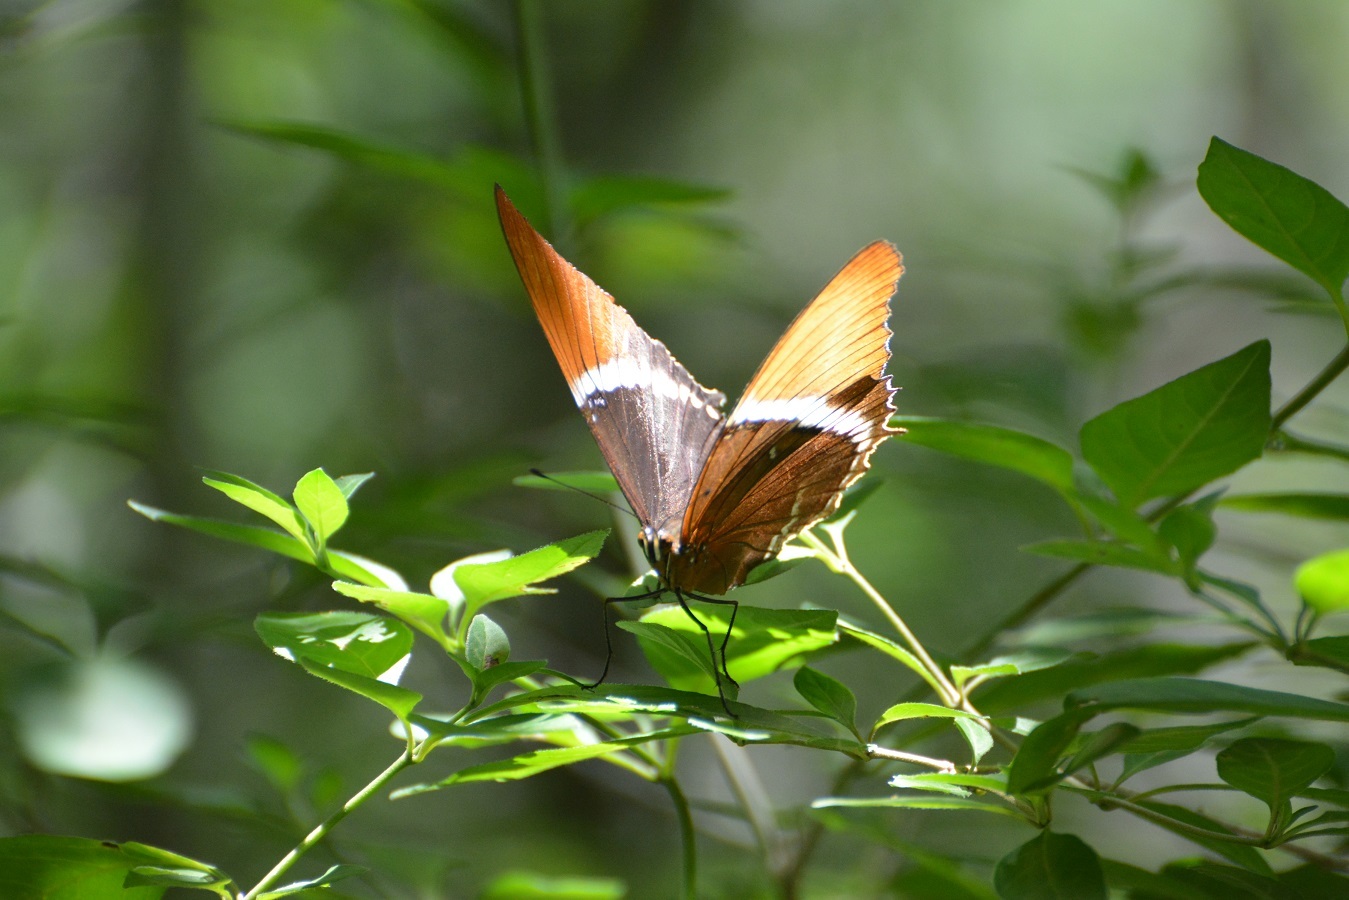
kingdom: Animalia
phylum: Arthropoda
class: Insecta
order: Lepidoptera
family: Nymphalidae
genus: Siproeta
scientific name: Siproeta epaphus
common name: Rusty-tipped page
